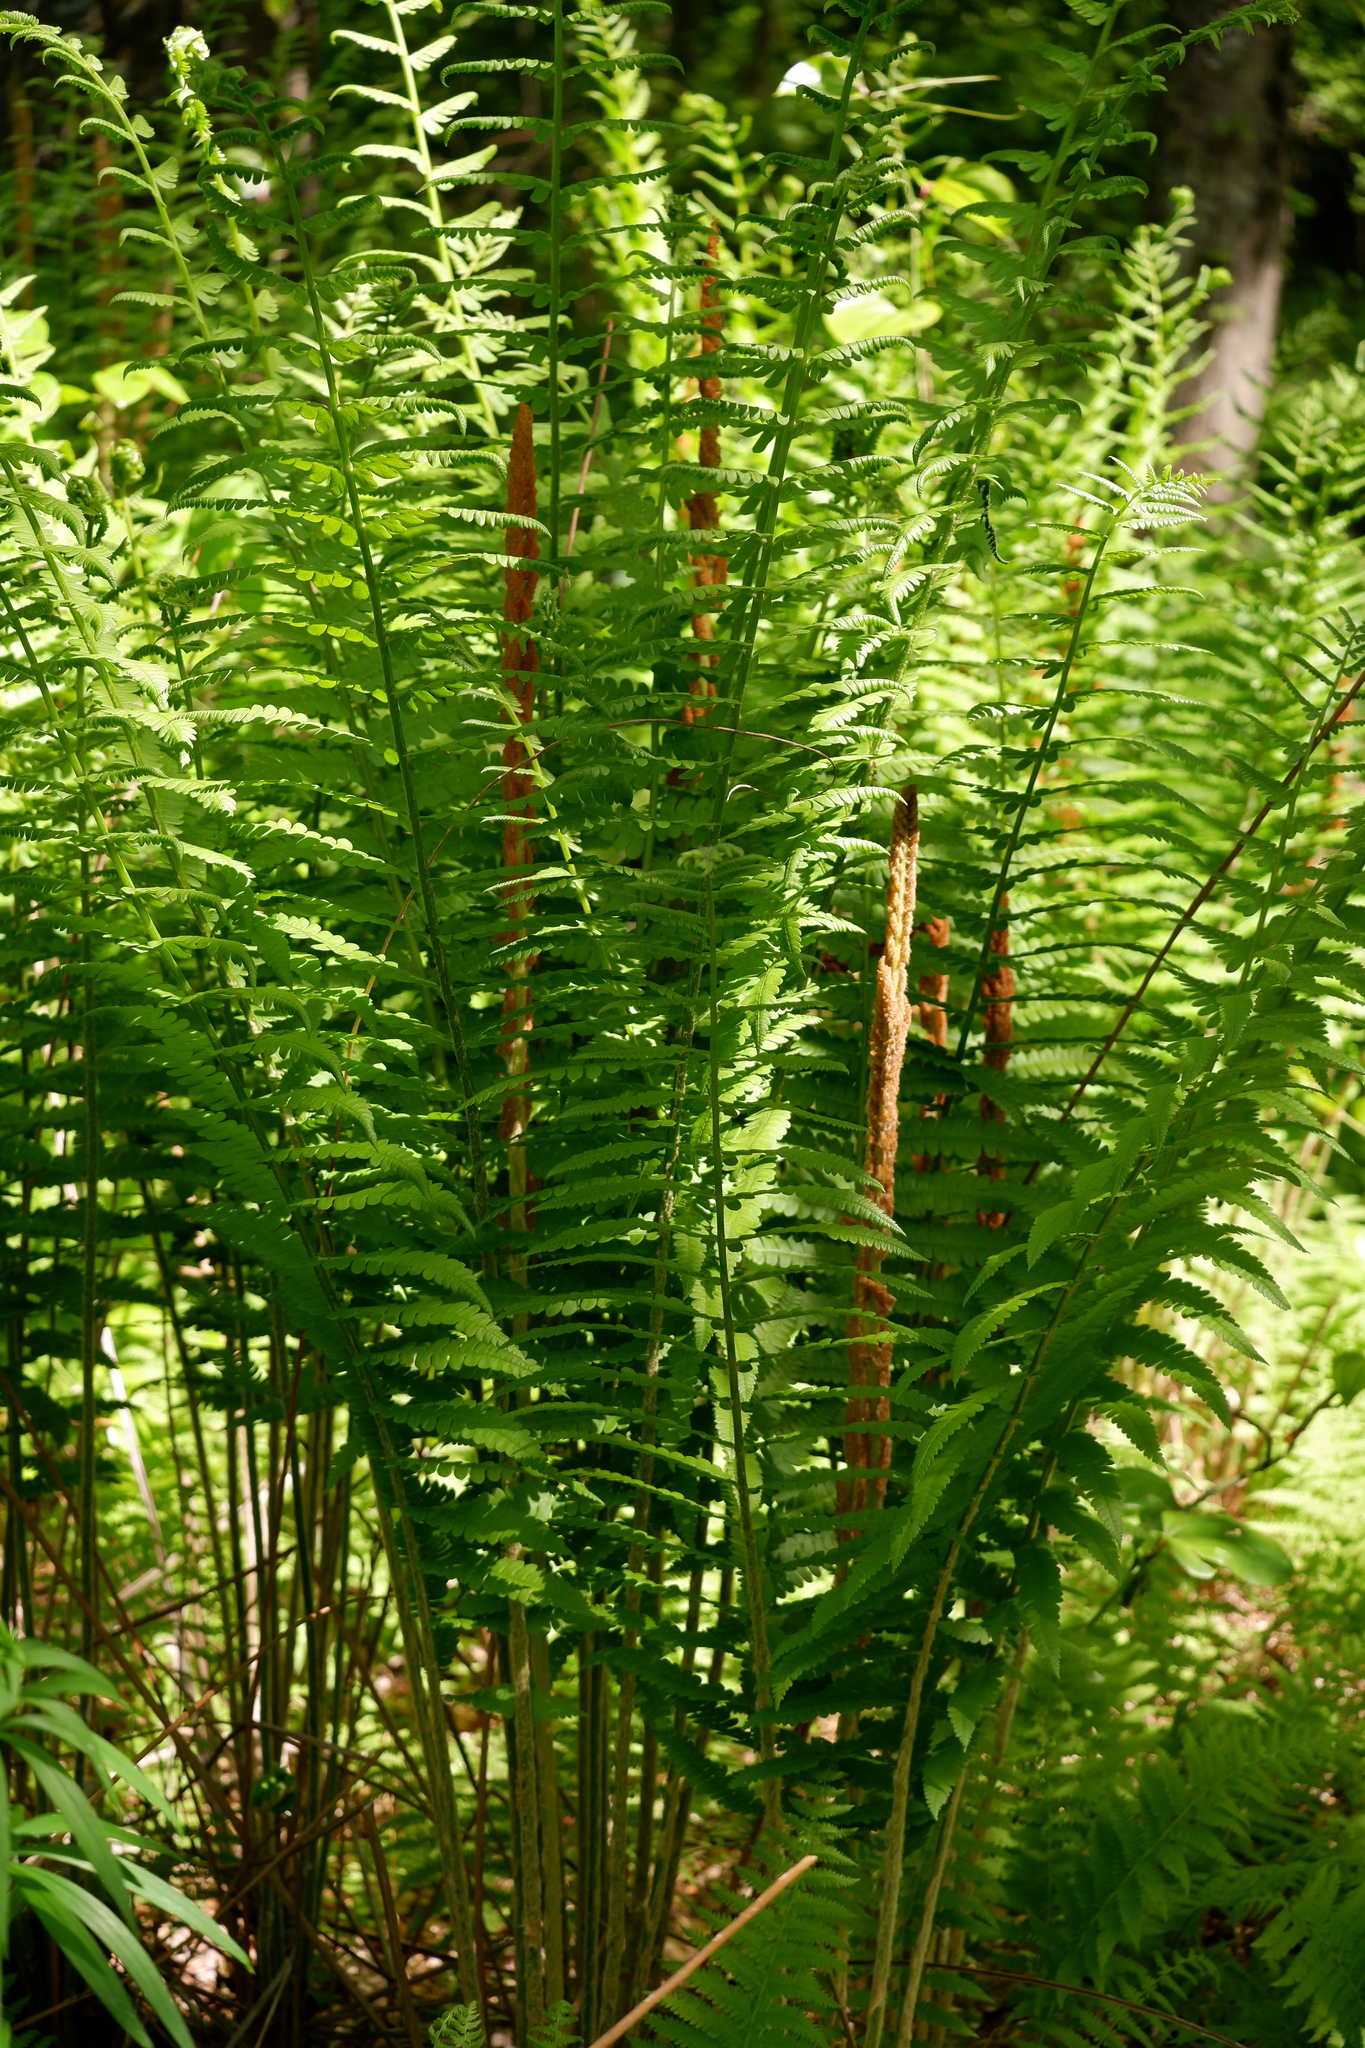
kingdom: Plantae
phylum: Tracheophyta
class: Polypodiopsida
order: Osmundales
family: Osmundaceae
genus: Osmundastrum
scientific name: Osmundastrum cinnamomeum
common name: Cinnamon fern
